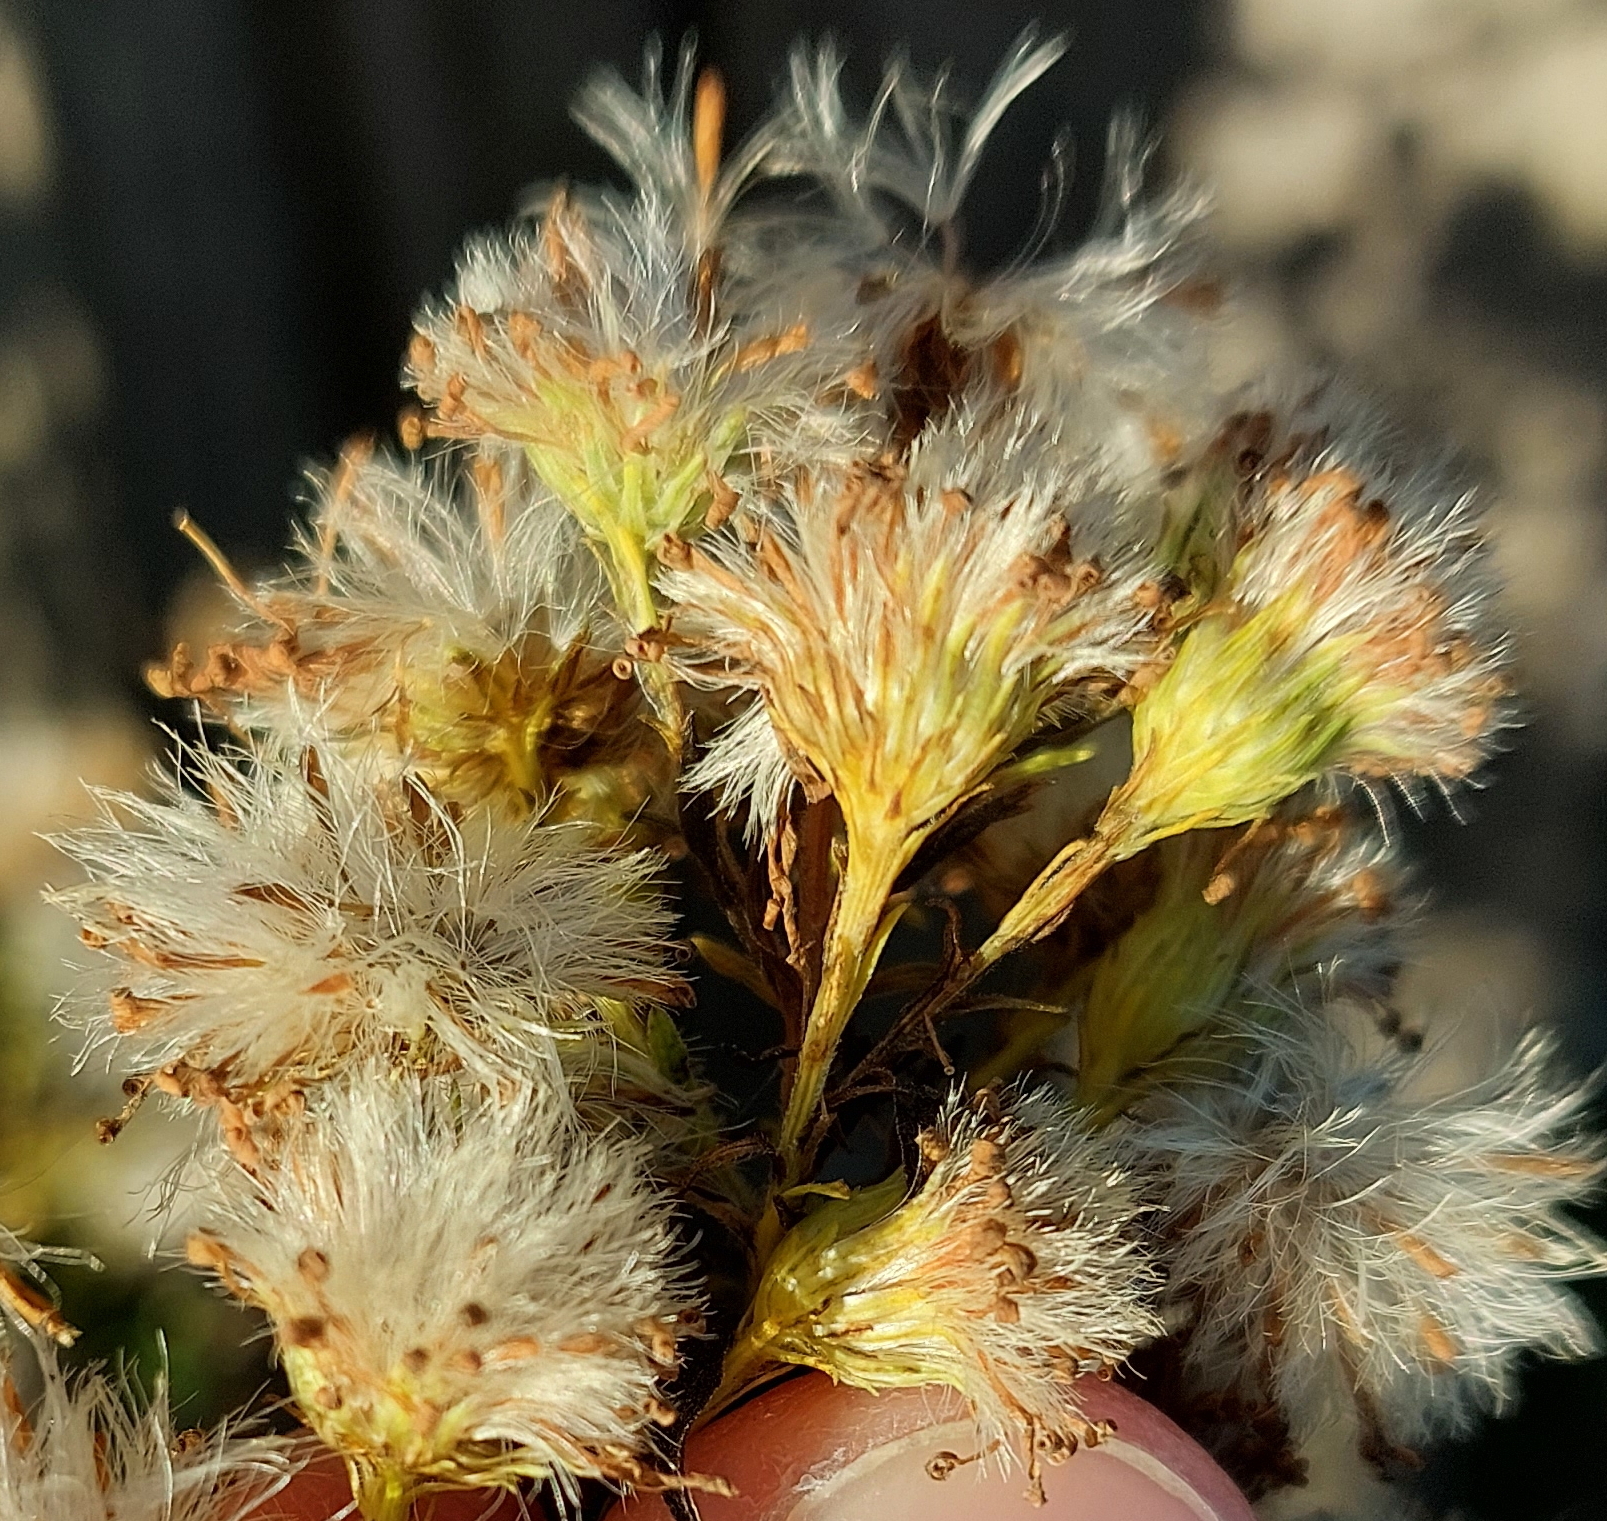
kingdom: Plantae
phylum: Tracheophyta
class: Magnoliopsida
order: Asterales
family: Asteraceae
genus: Symphyotrichum
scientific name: Symphyotrichum lanceolatum
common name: Panicled aster
